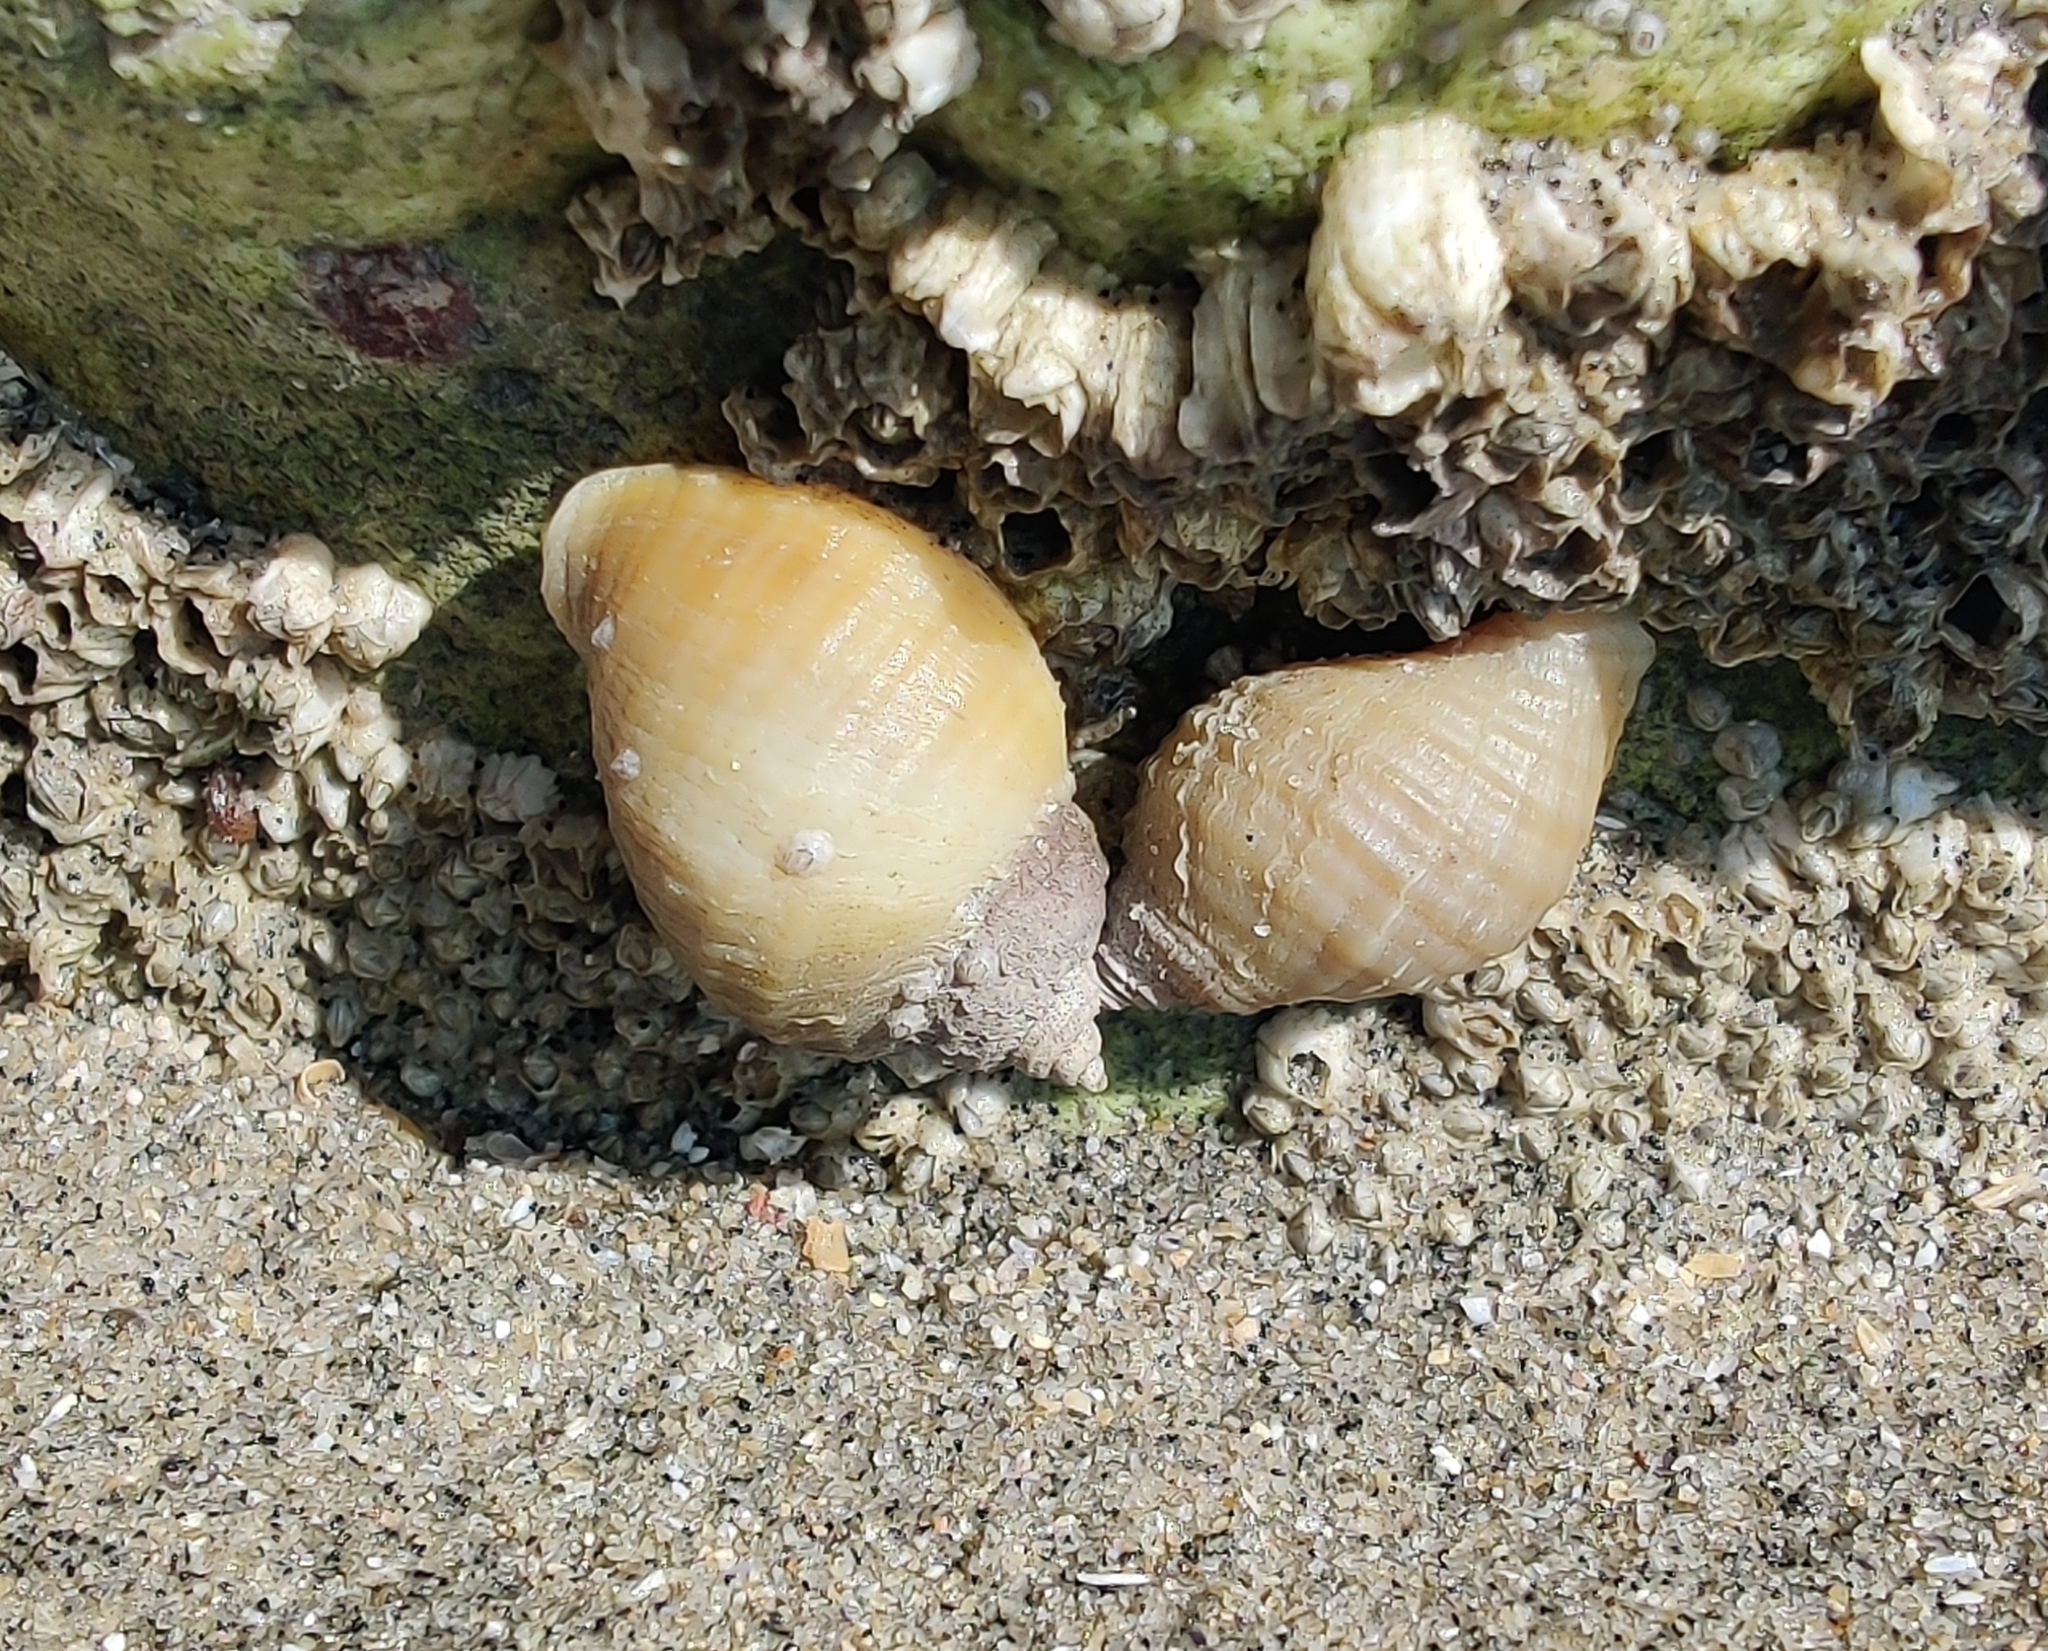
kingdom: Animalia
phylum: Mollusca
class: Gastropoda
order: Neogastropoda
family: Muricidae
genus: Nucella
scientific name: Nucella lapillus
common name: Dog whelk
